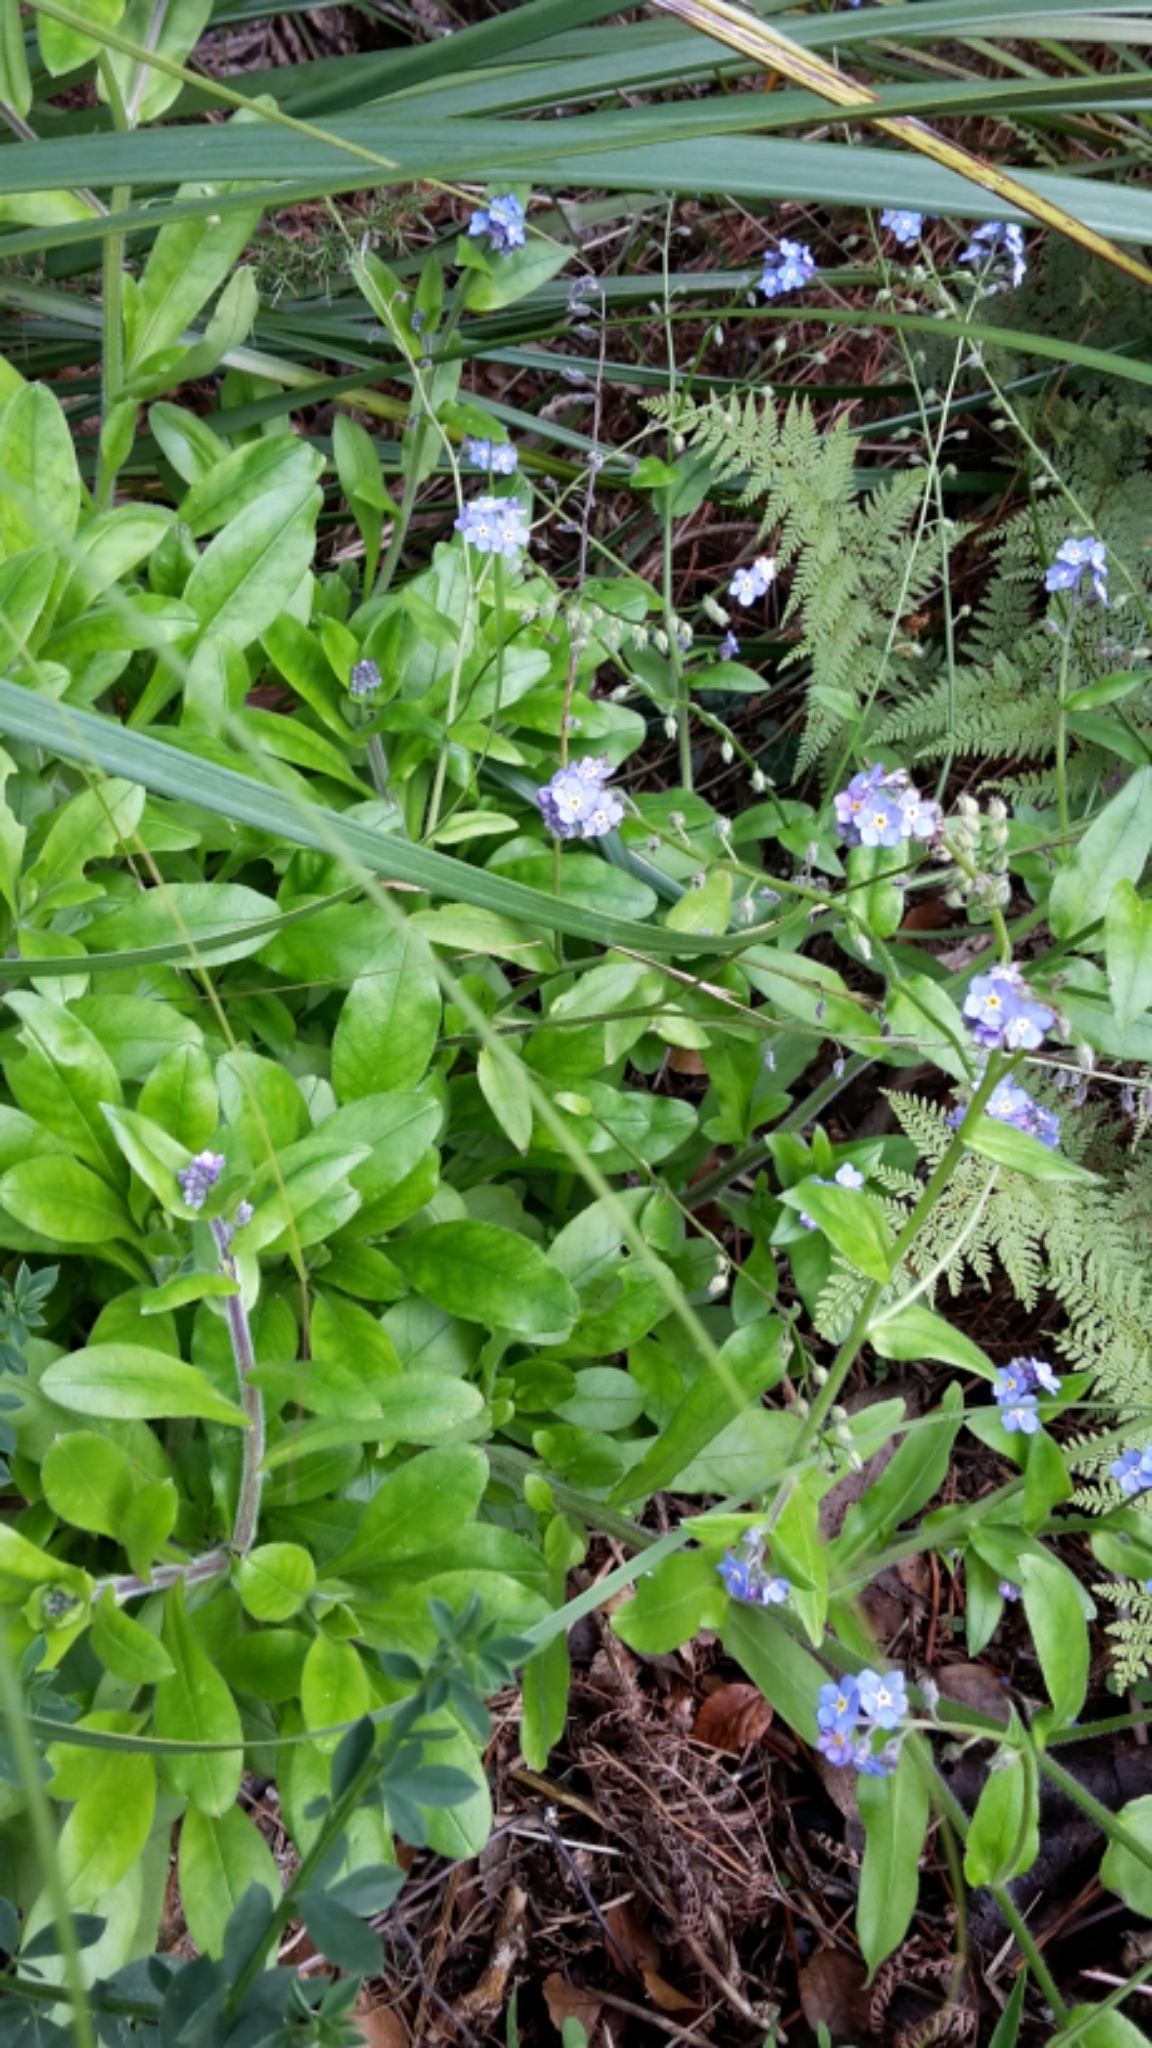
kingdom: Plantae
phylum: Tracheophyta
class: Magnoliopsida
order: Boraginales
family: Boraginaceae
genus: Myosotis
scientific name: Myosotis sylvatica
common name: Wood forget-me-not
